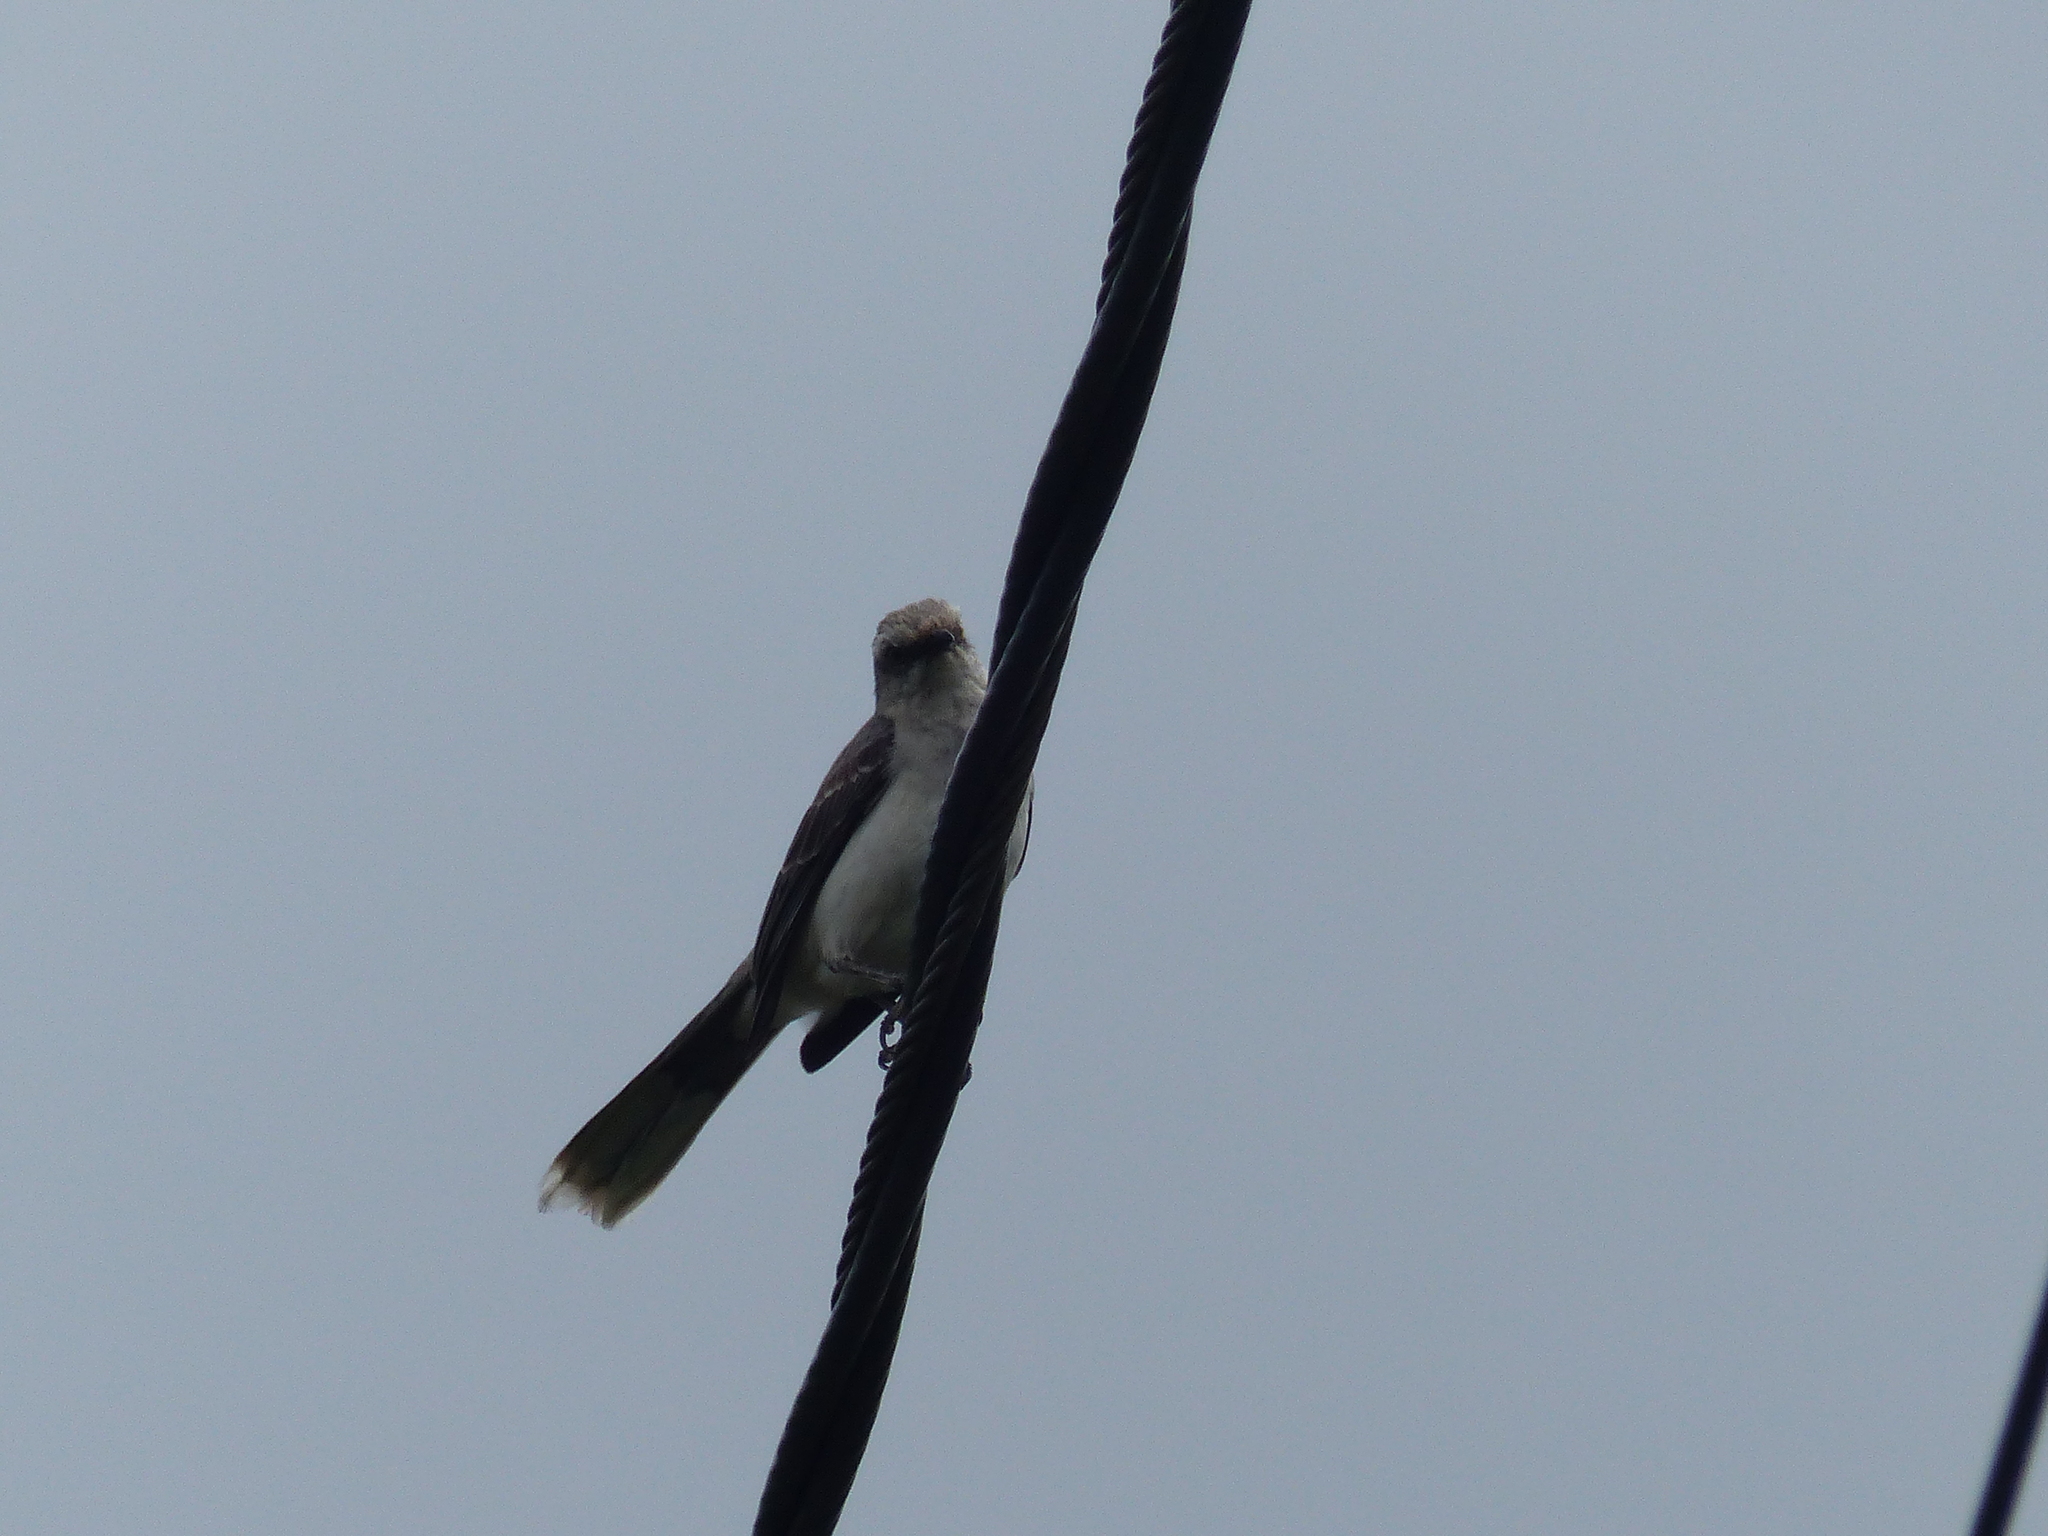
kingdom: Animalia
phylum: Chordata
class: Aves
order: Passeriformes
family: Mimidae
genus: Mimus
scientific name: Mimus gilvus
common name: Tropical mockingbird
